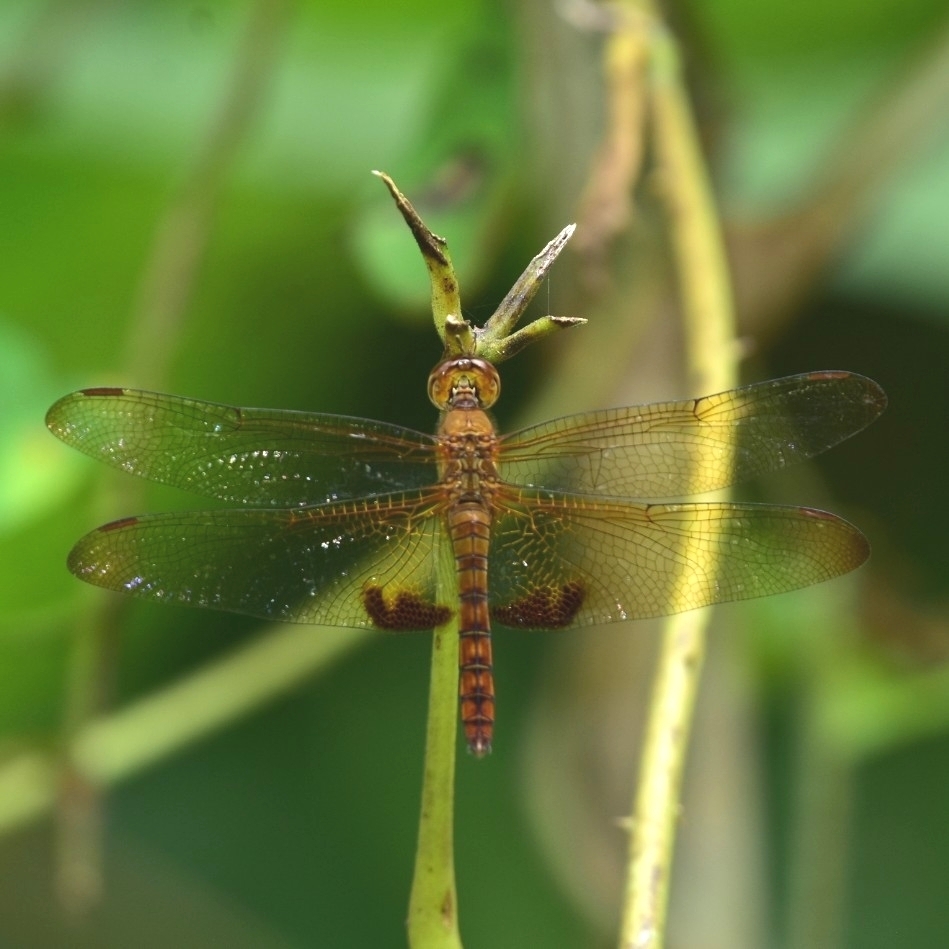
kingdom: Animalia
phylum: Arthropoda
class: Insecta
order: Odonata
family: Libellulidae
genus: Hydrobasileus
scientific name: Hydrobasileus croceus
